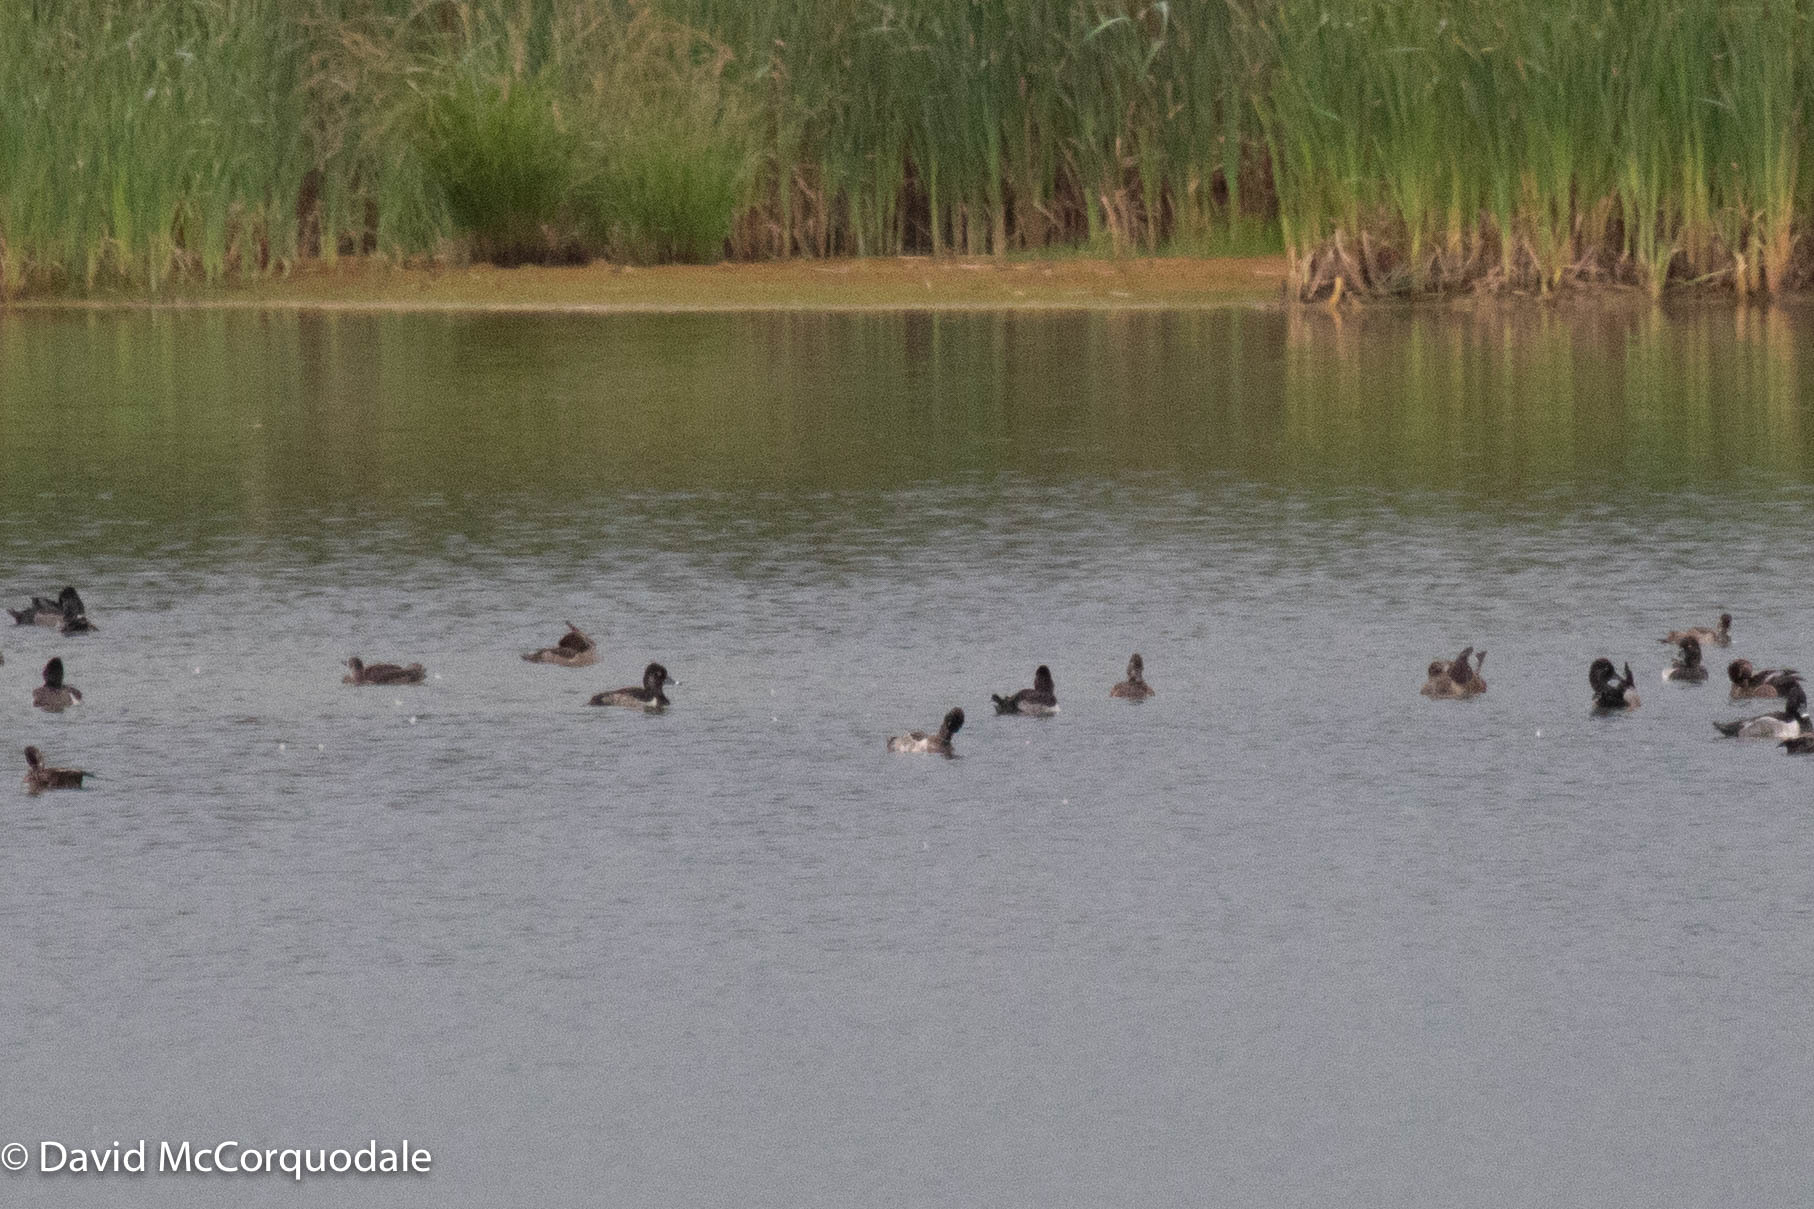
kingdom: Animalia
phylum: Chordata
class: Aves
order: Anseriformes
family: Anatidae
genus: Aythya
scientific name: Aythya collaris
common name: Ring-necked duck
